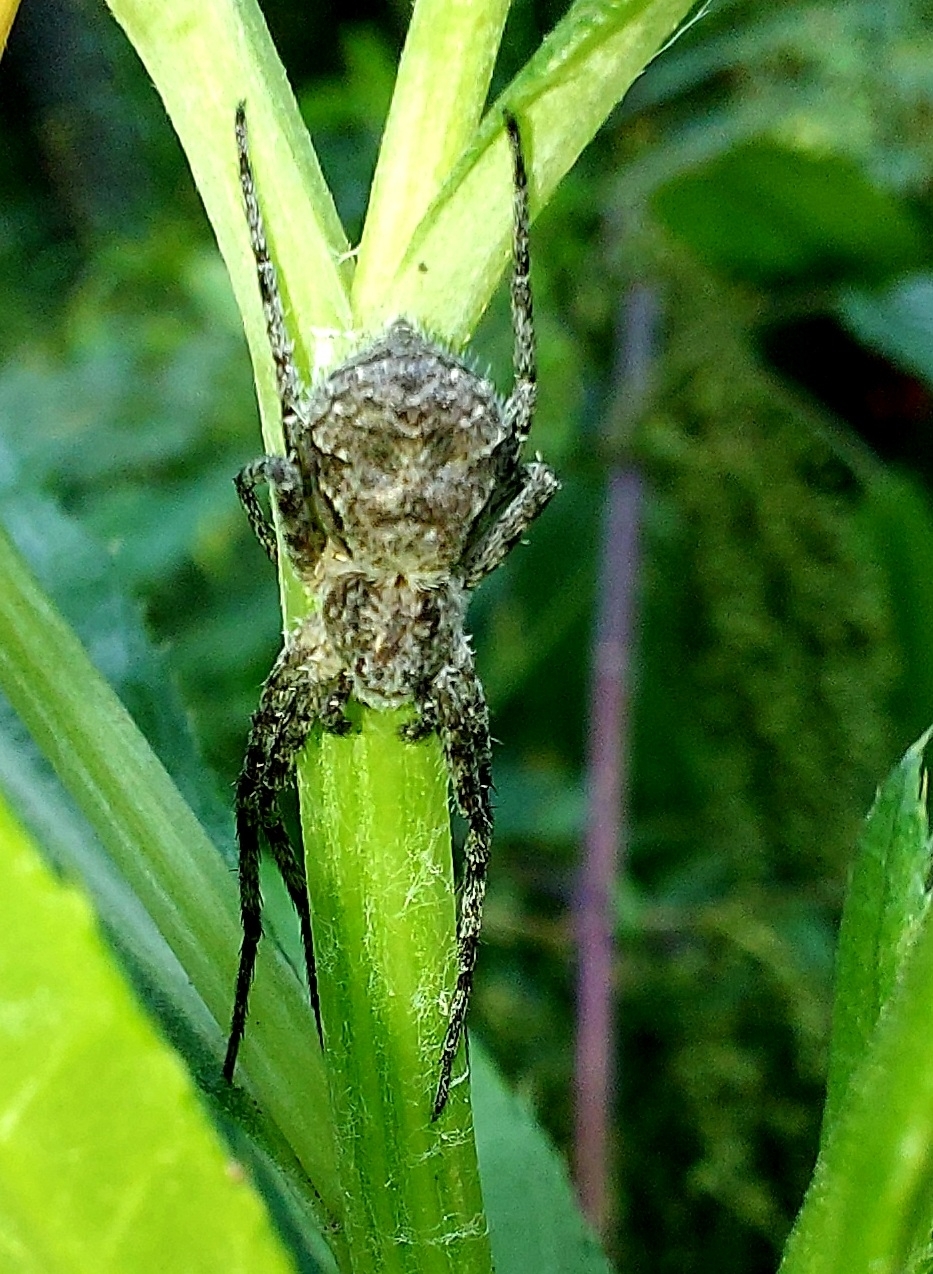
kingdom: Animalia
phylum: Arthropoda
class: Arachnida
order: Araneae
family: Philodromidae
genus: Philodromus
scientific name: Philodromus margaritatus
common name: Lichen running-spider
